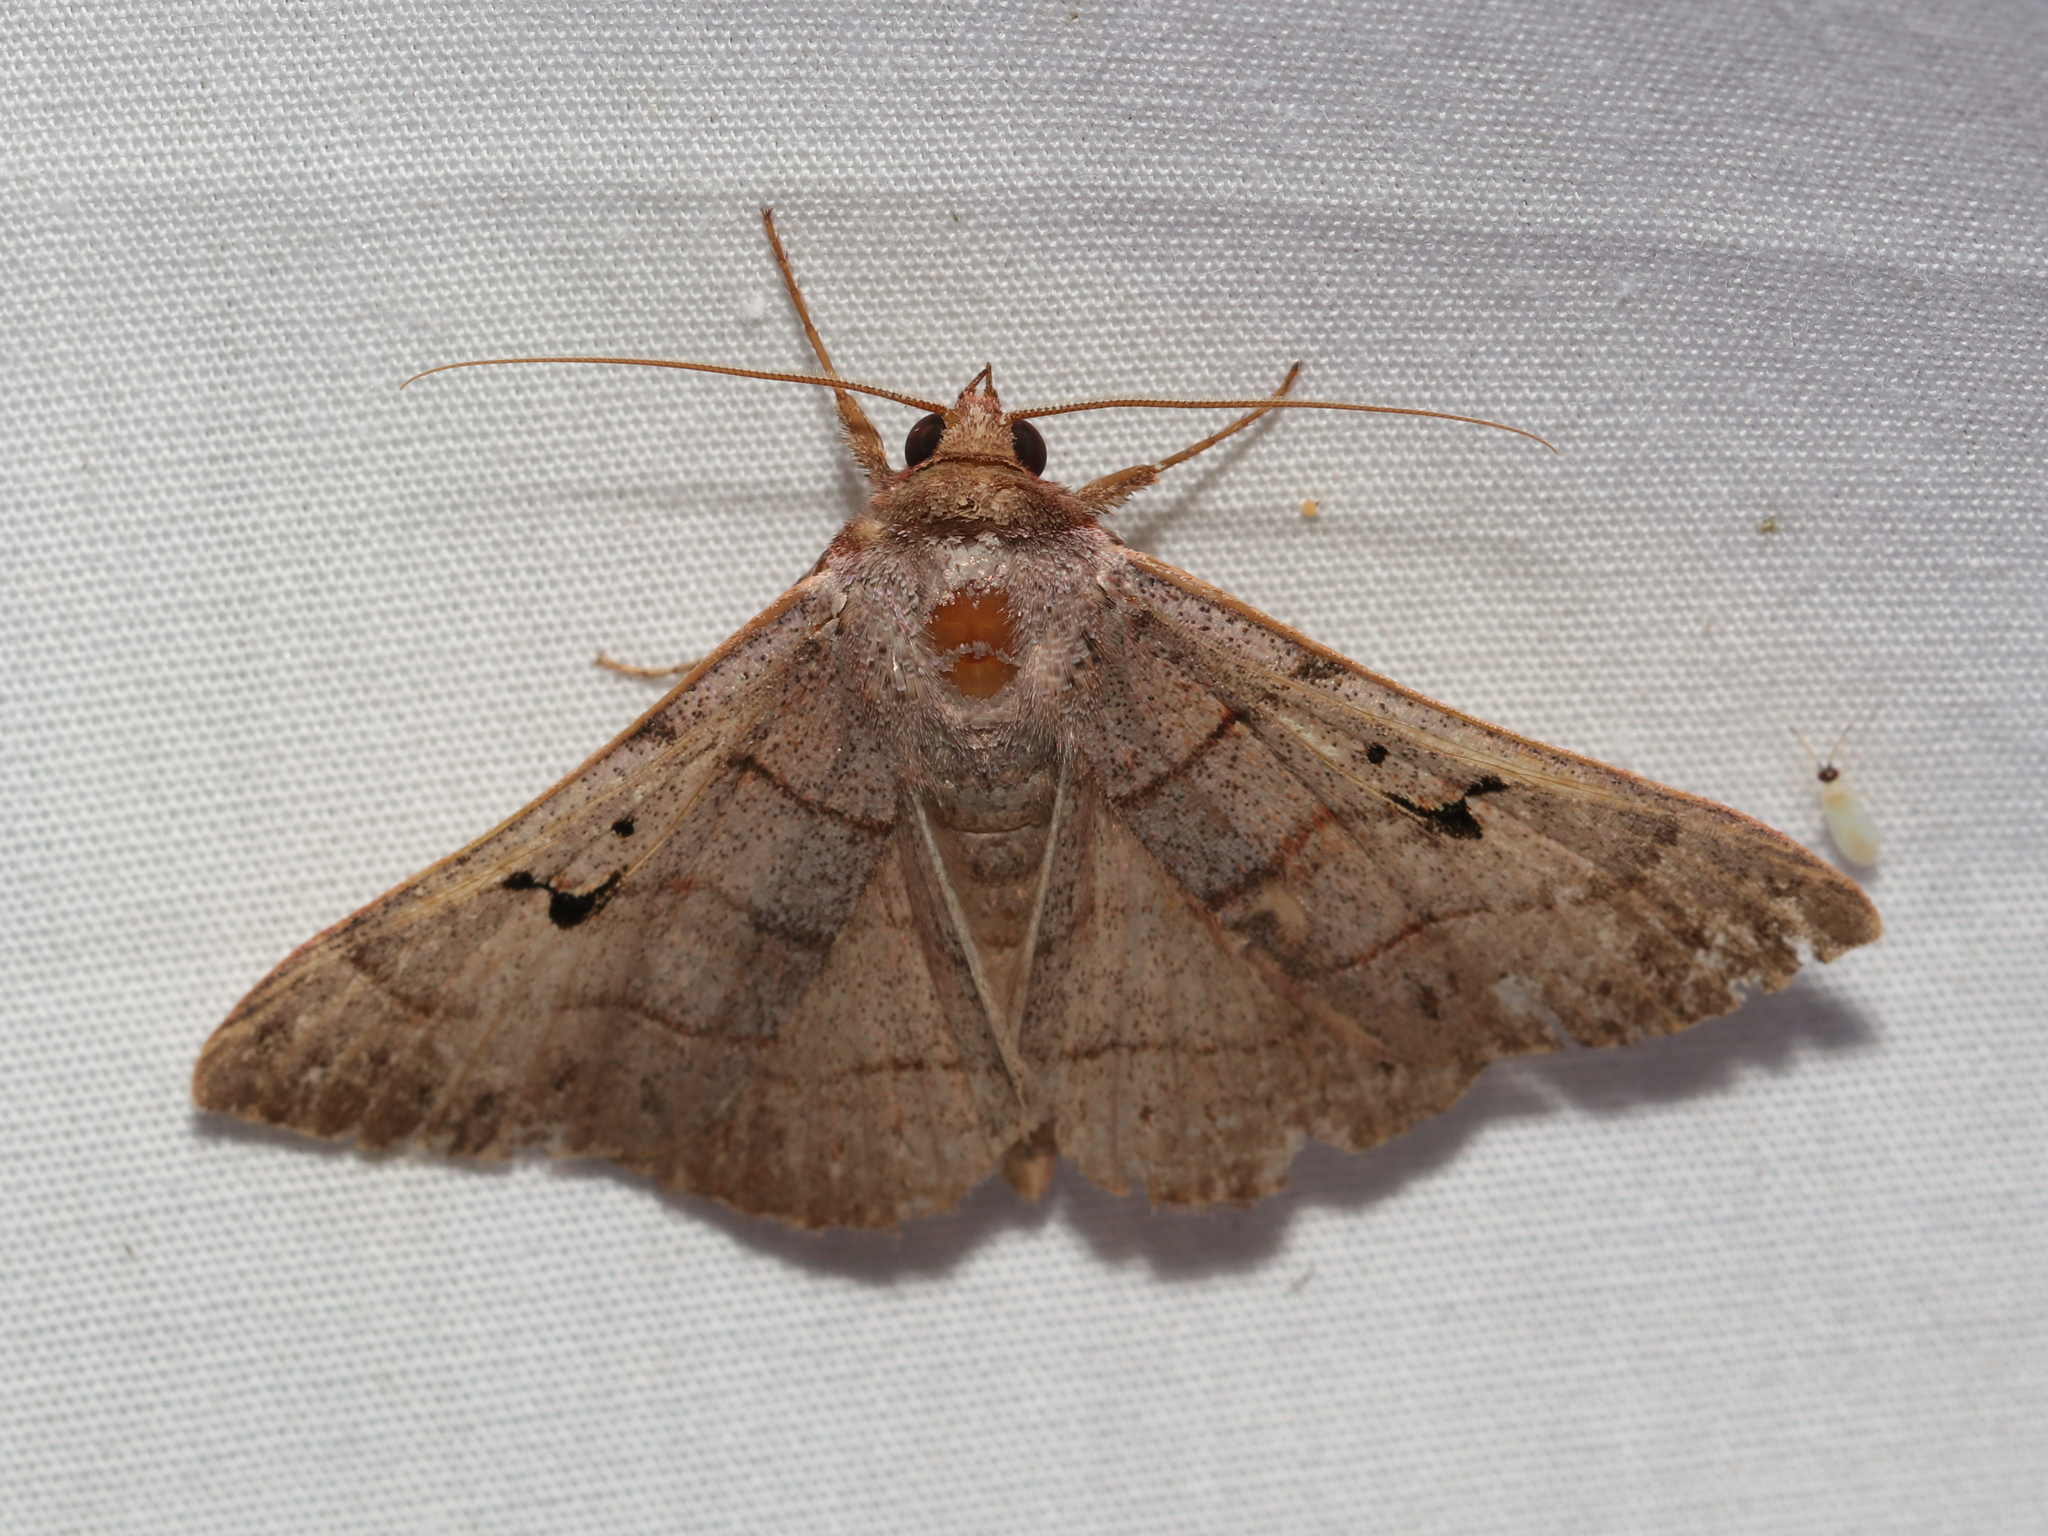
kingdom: Animalia
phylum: Arthropoda
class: Insecta
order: Lepidoptera
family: Erebidae
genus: Panopoda
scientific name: Panopoda carneicosta
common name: Brown panopoda moth
